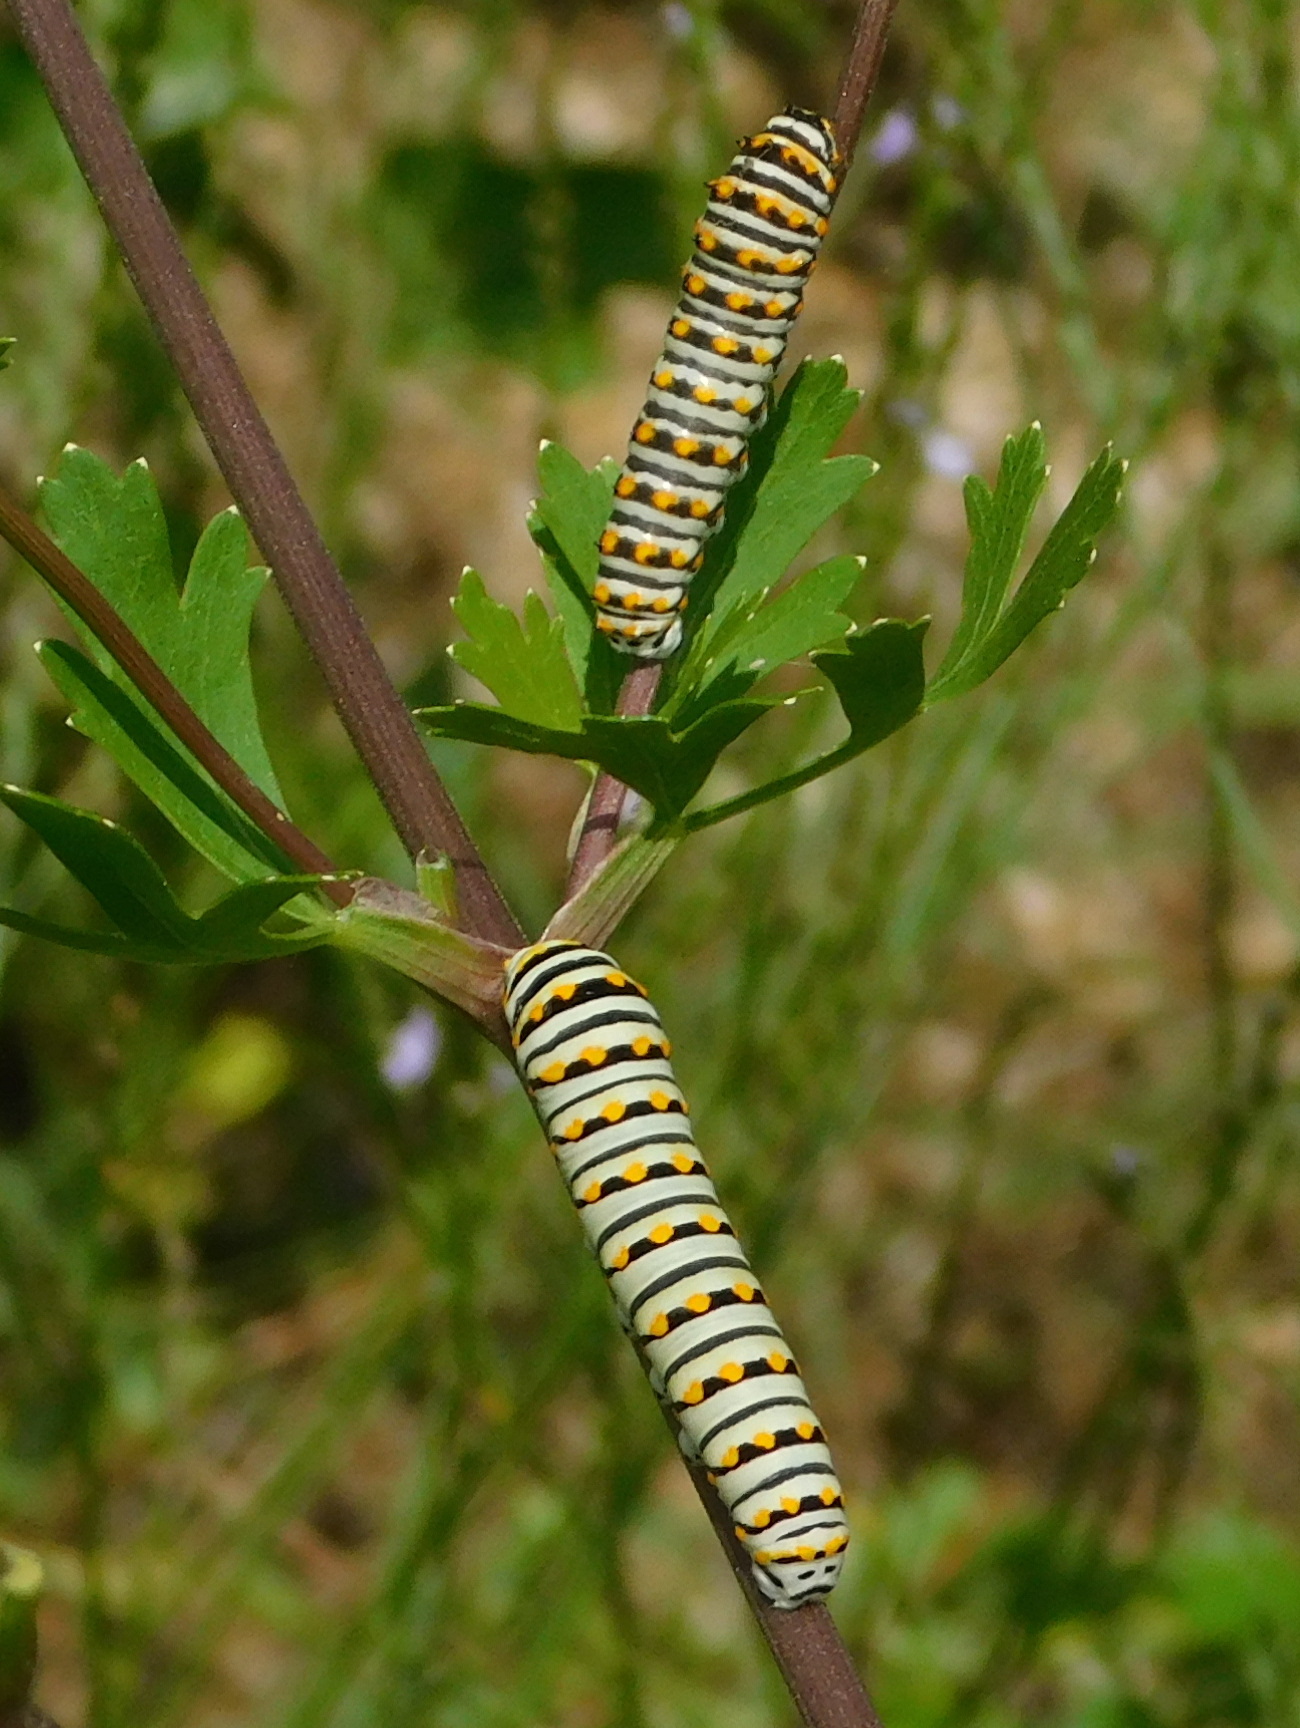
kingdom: Animalia
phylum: Arthropoda
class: Insecta
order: Lepidoptera
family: Papilionidae
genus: Papilio
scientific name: Papilio polyxenes
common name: Black swallowtail
